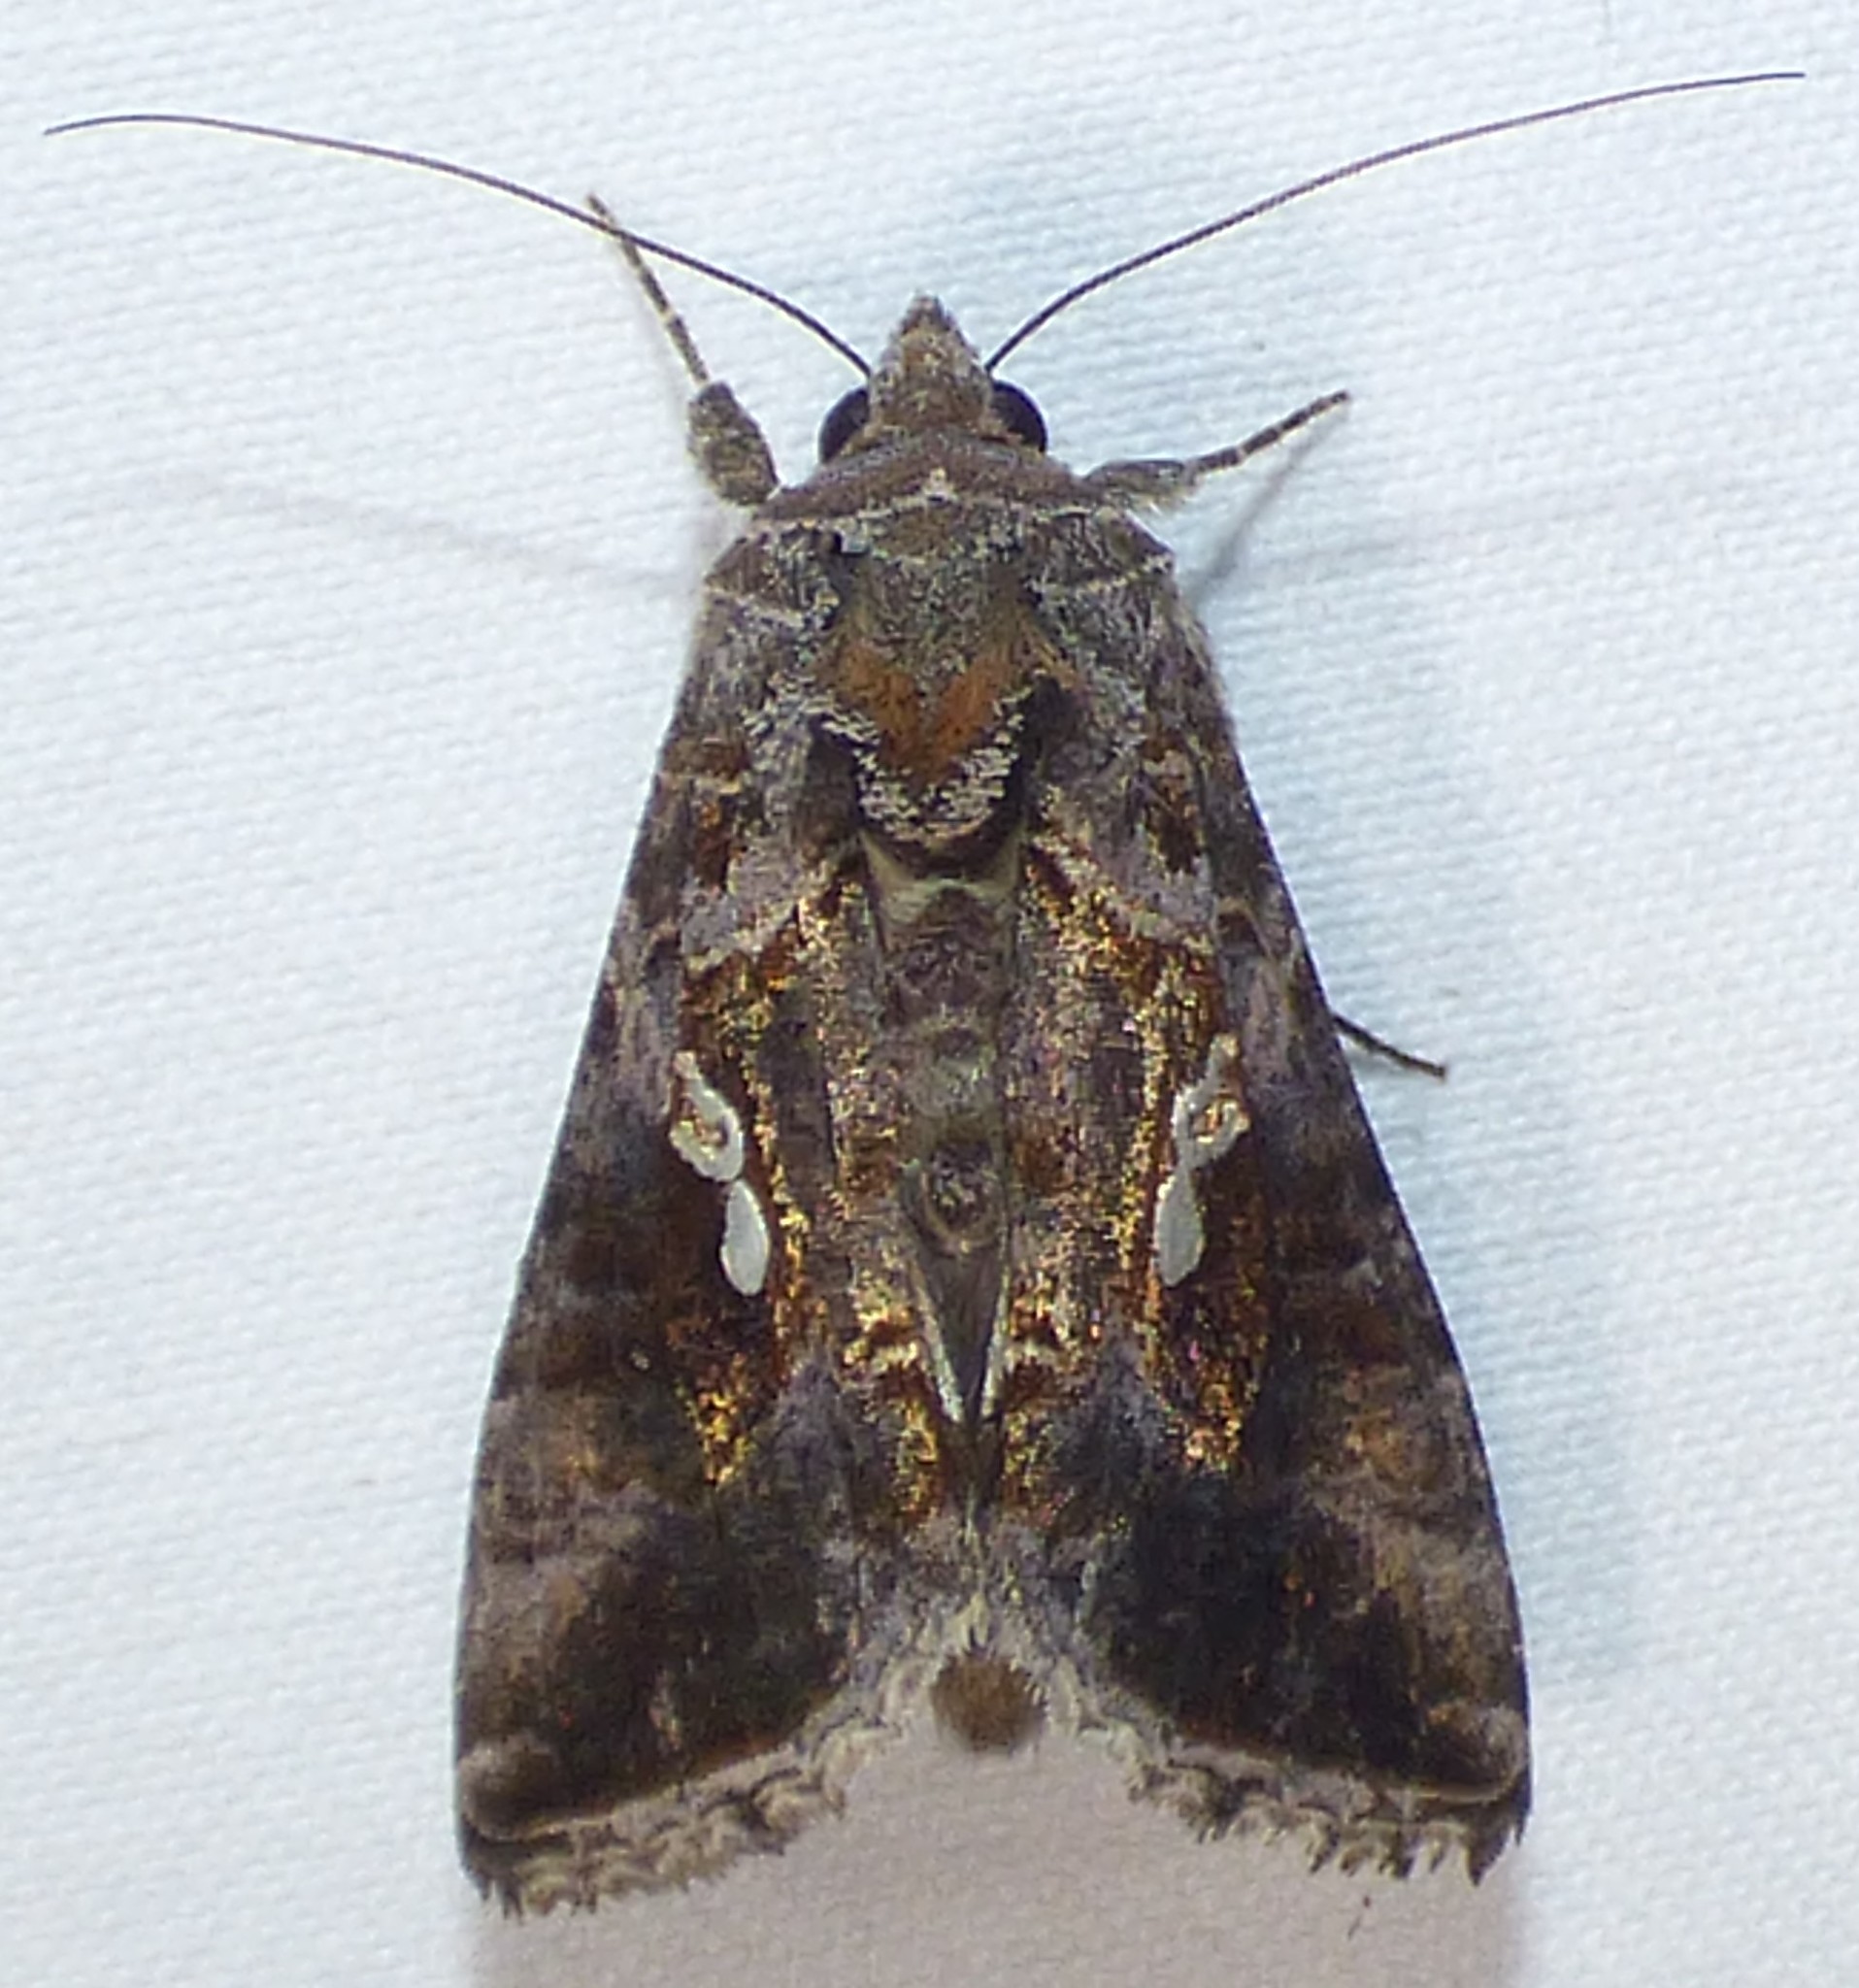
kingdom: Animalia
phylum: Arthropoda
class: Insecta
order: Lepidoptera
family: Noctuidae
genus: Chrysodeixis
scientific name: Chrysodeixis includens
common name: Cutworm moth
